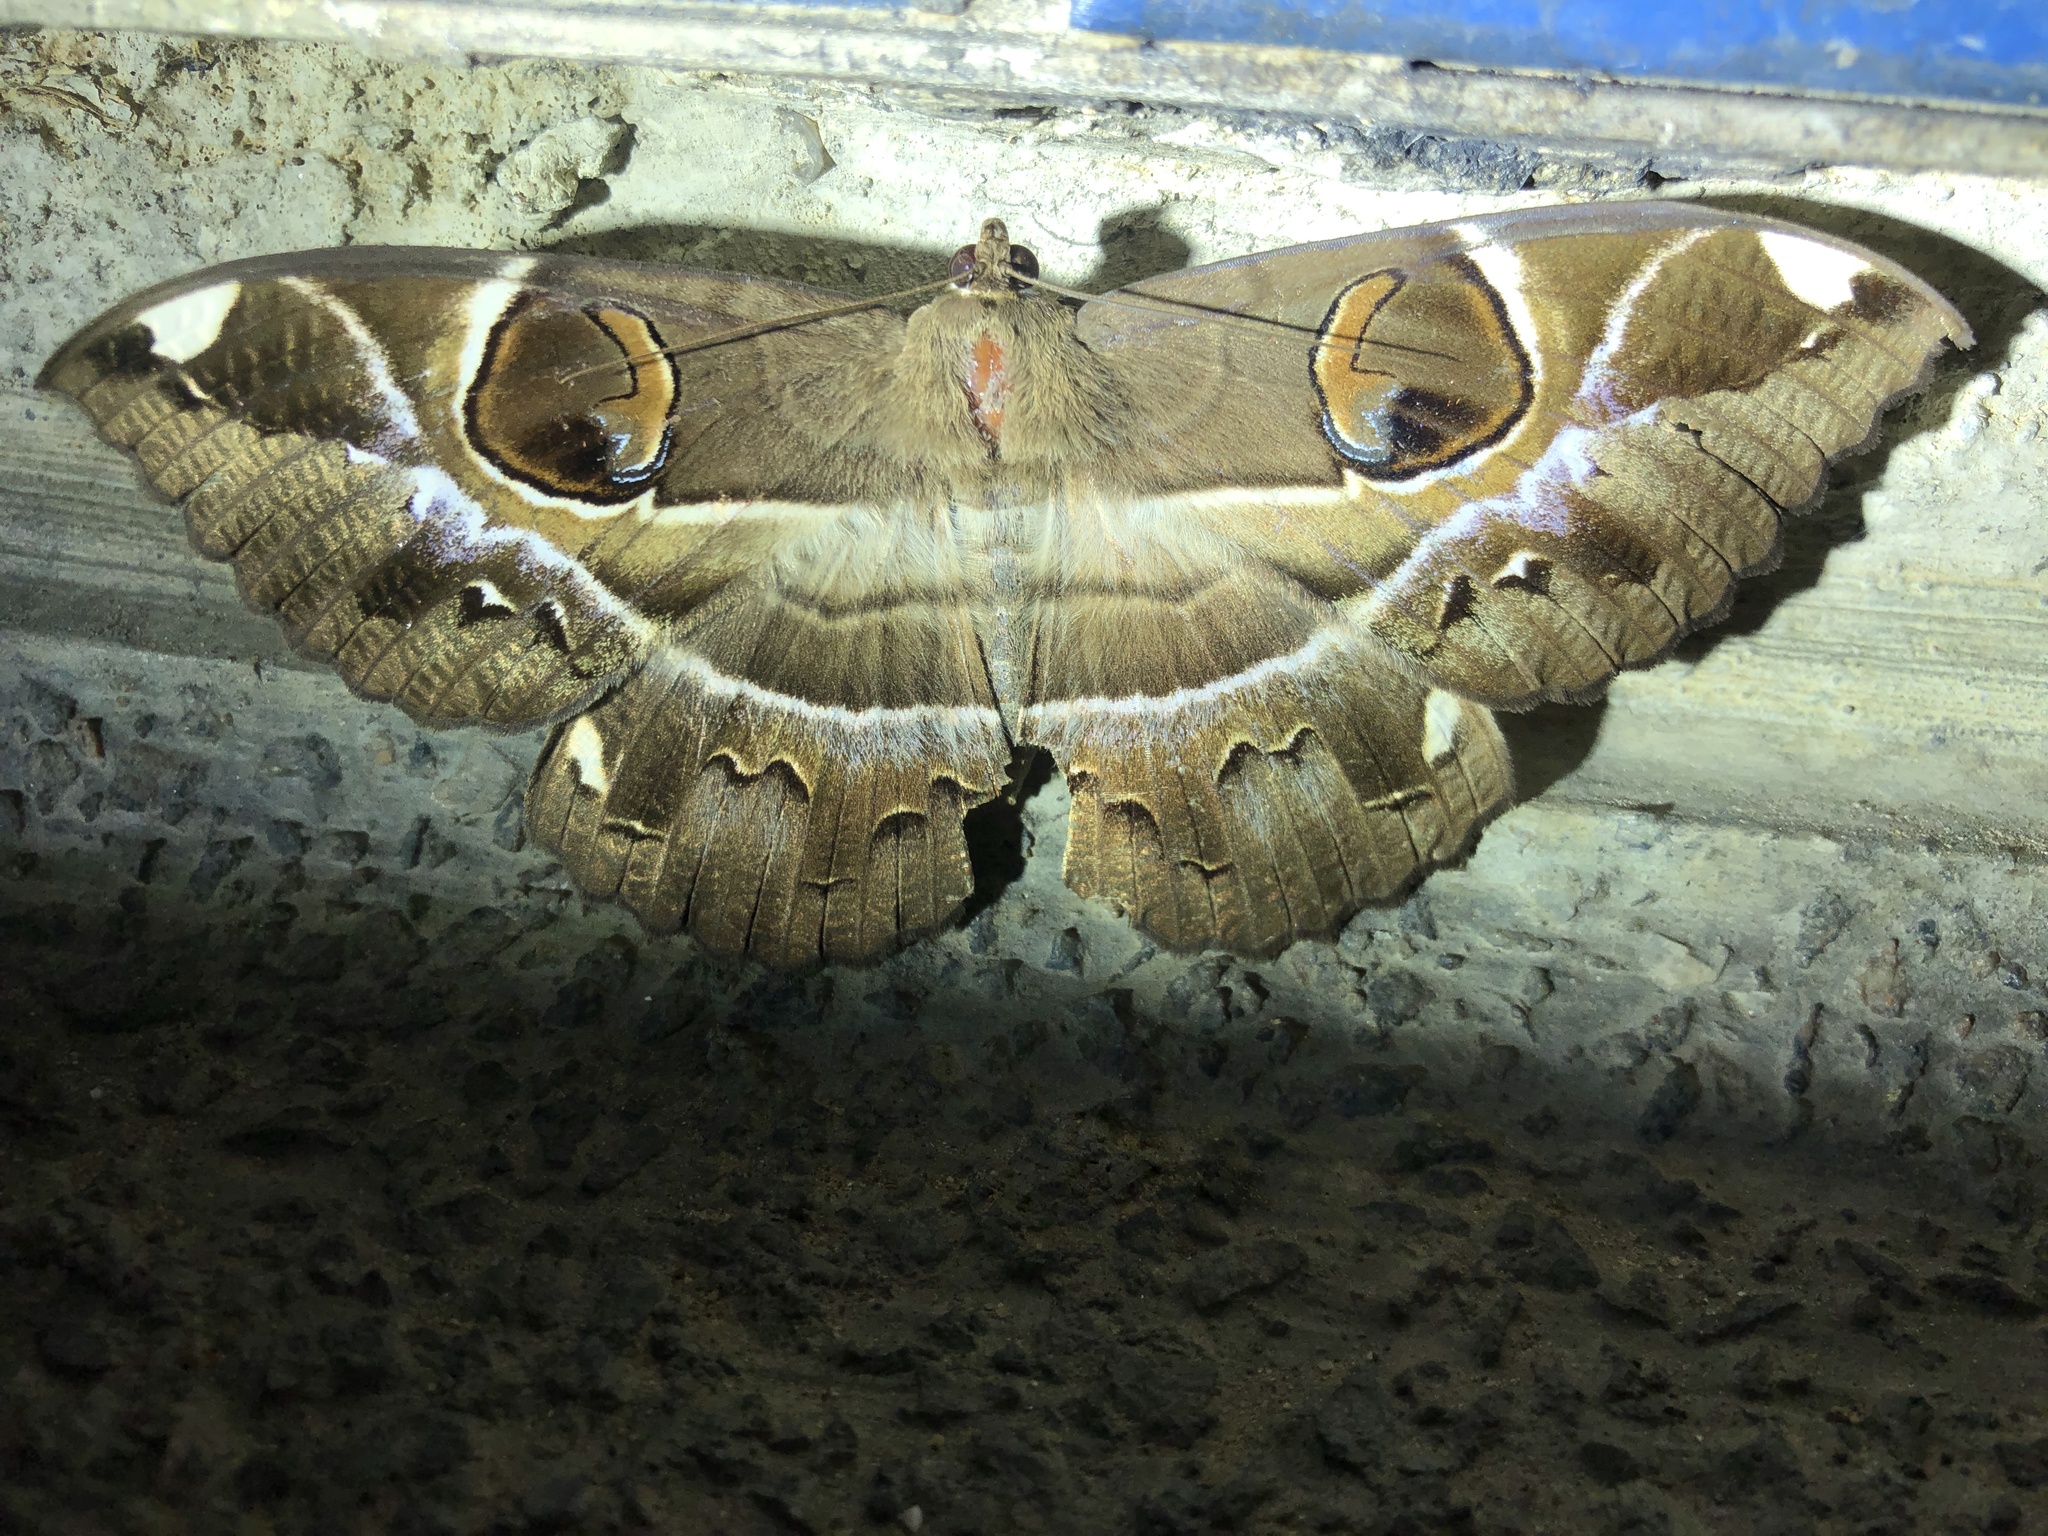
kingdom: Animalia
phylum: Arthropoda
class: Insecta
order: Lepidoptera
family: Erebidae
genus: Erebus
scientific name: Erebus ephesperis
